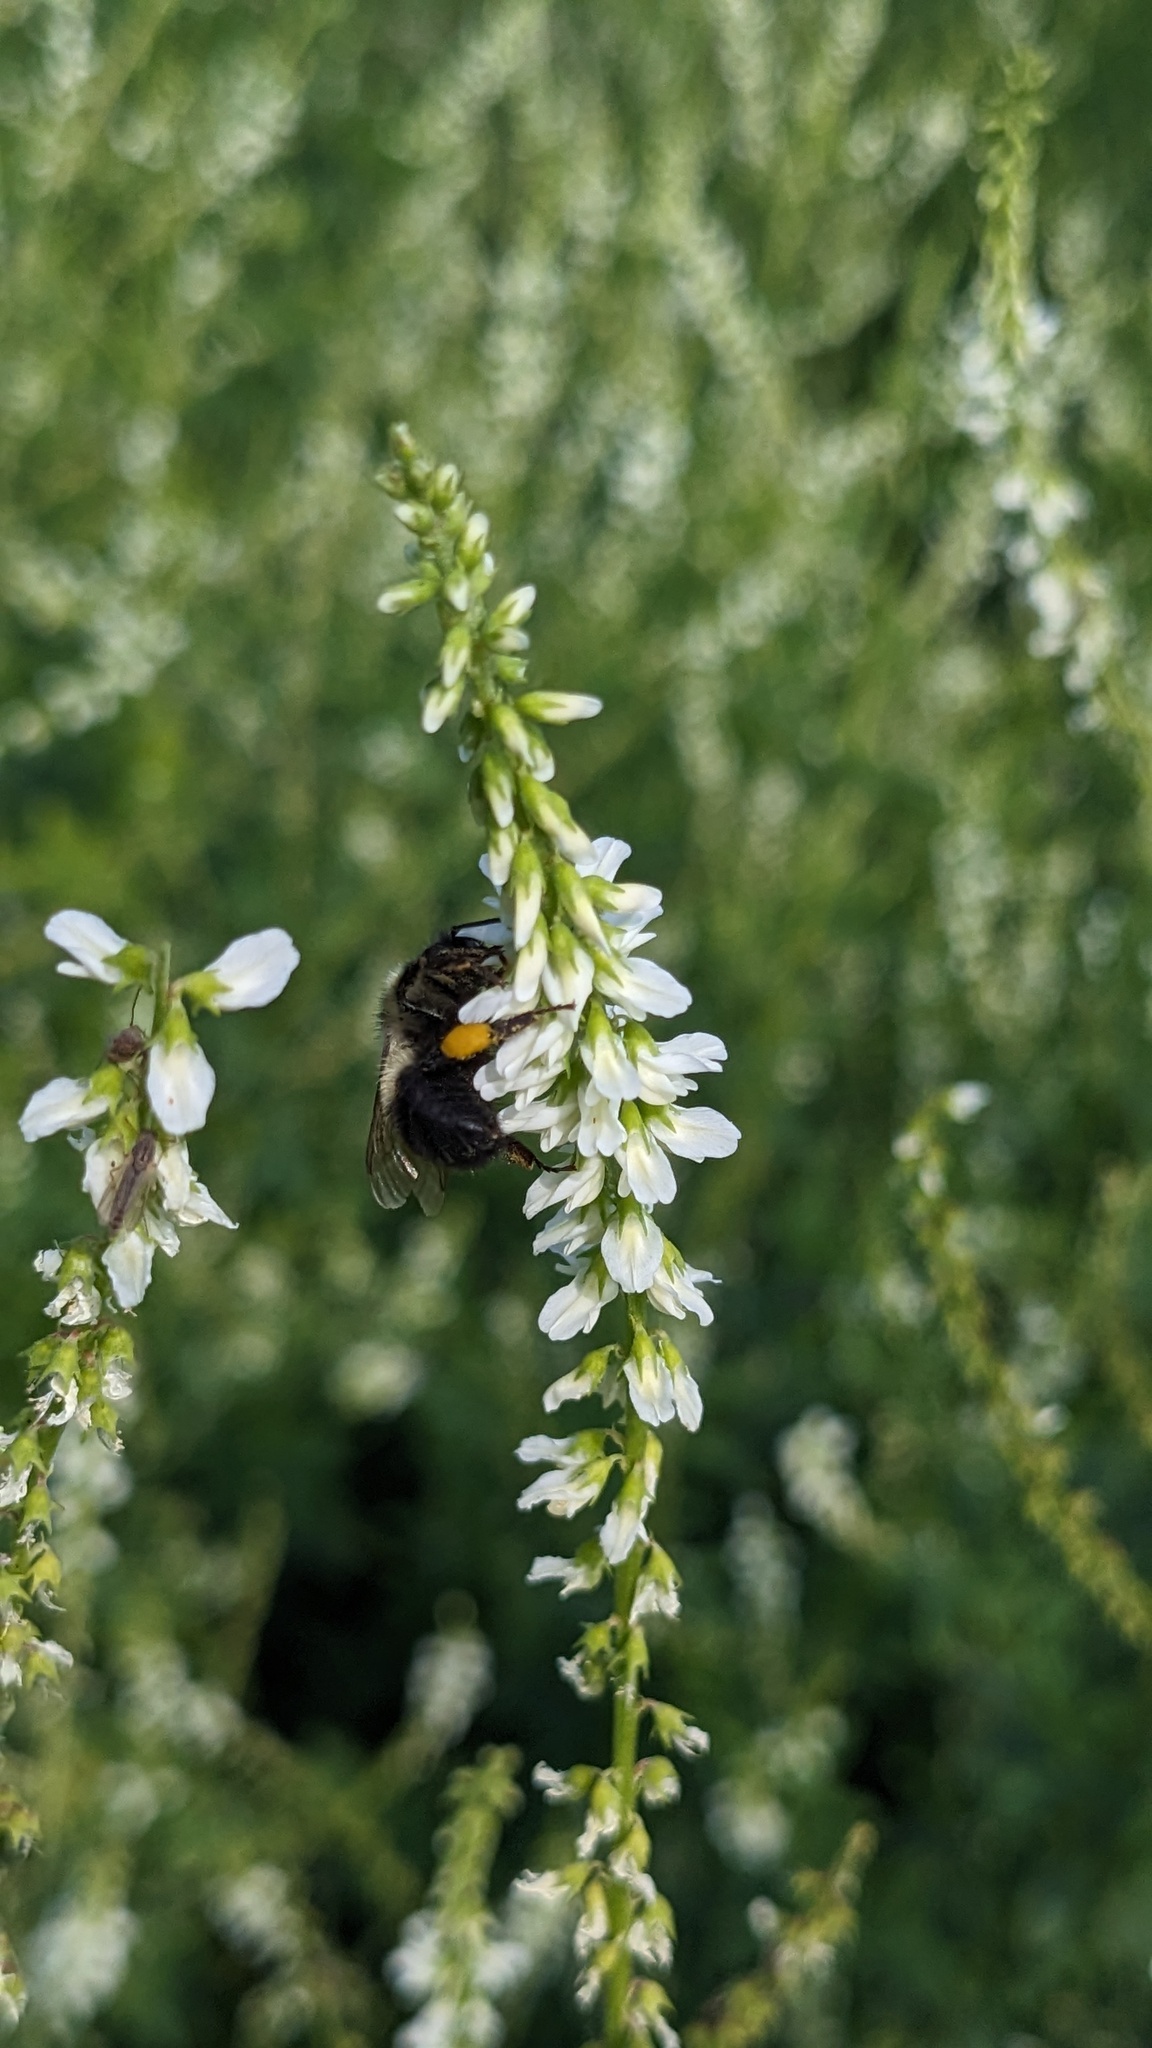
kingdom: Animalia
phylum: Arthropoda
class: Insecta
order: Hymenoptera
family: Apidae
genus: Pyrobombus
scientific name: Pyrobombus
